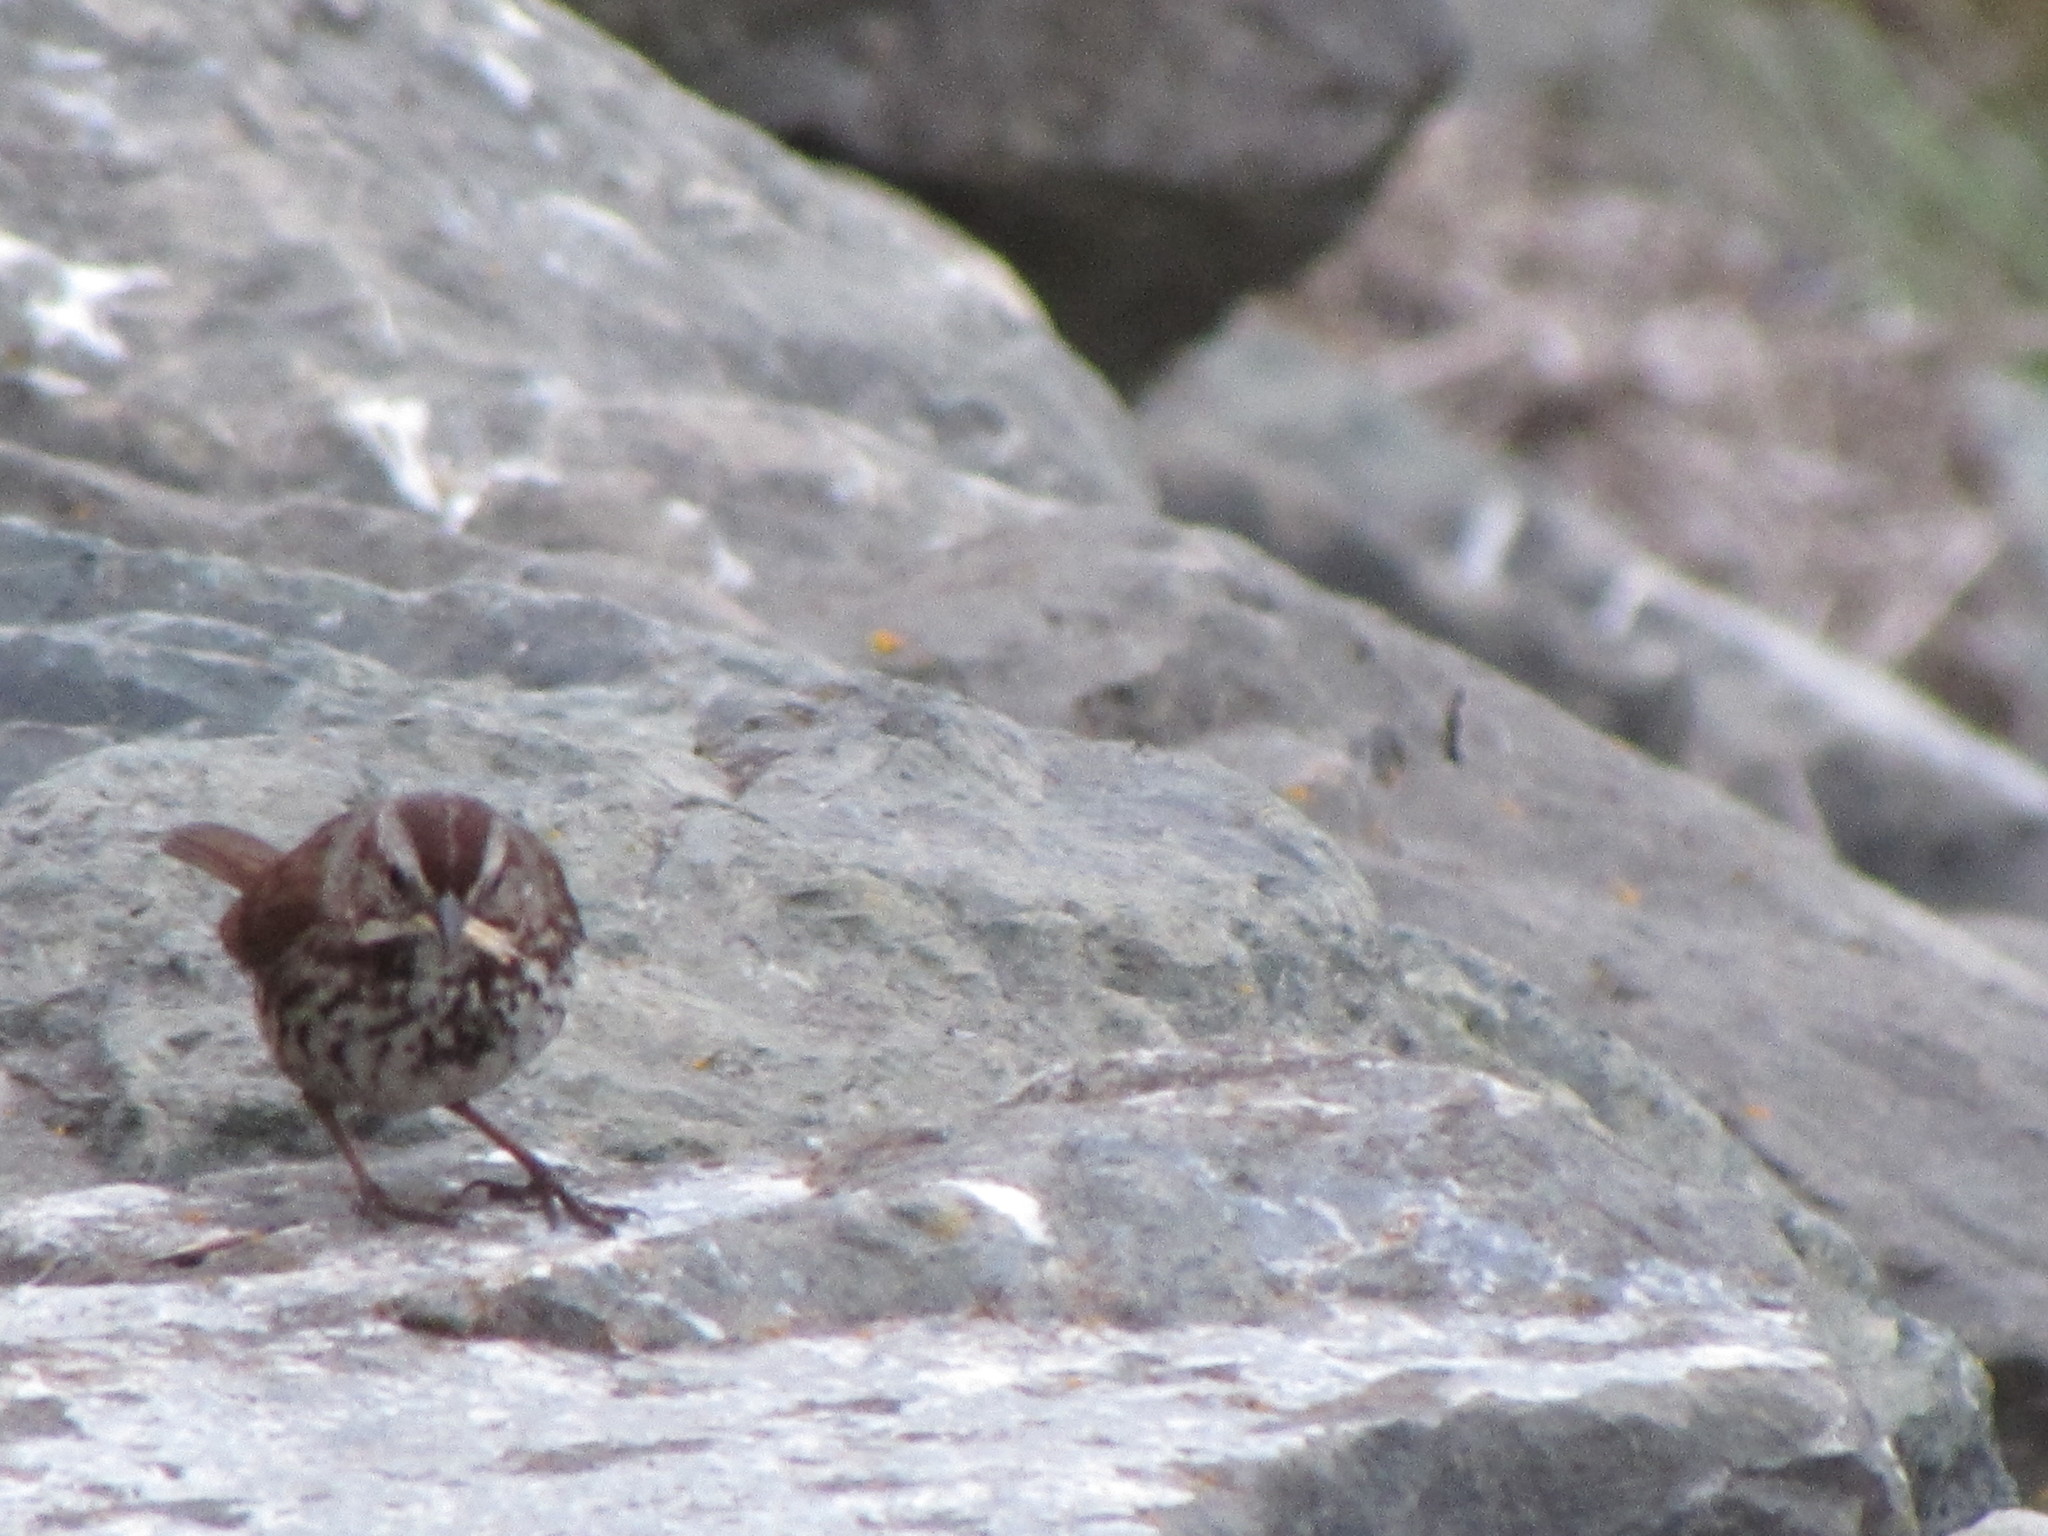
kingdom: Animalia
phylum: Chordata
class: Aves
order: Passeriformes
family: Passerellidae
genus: Melospiza
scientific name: Melospiza melodia
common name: Song sparrow
